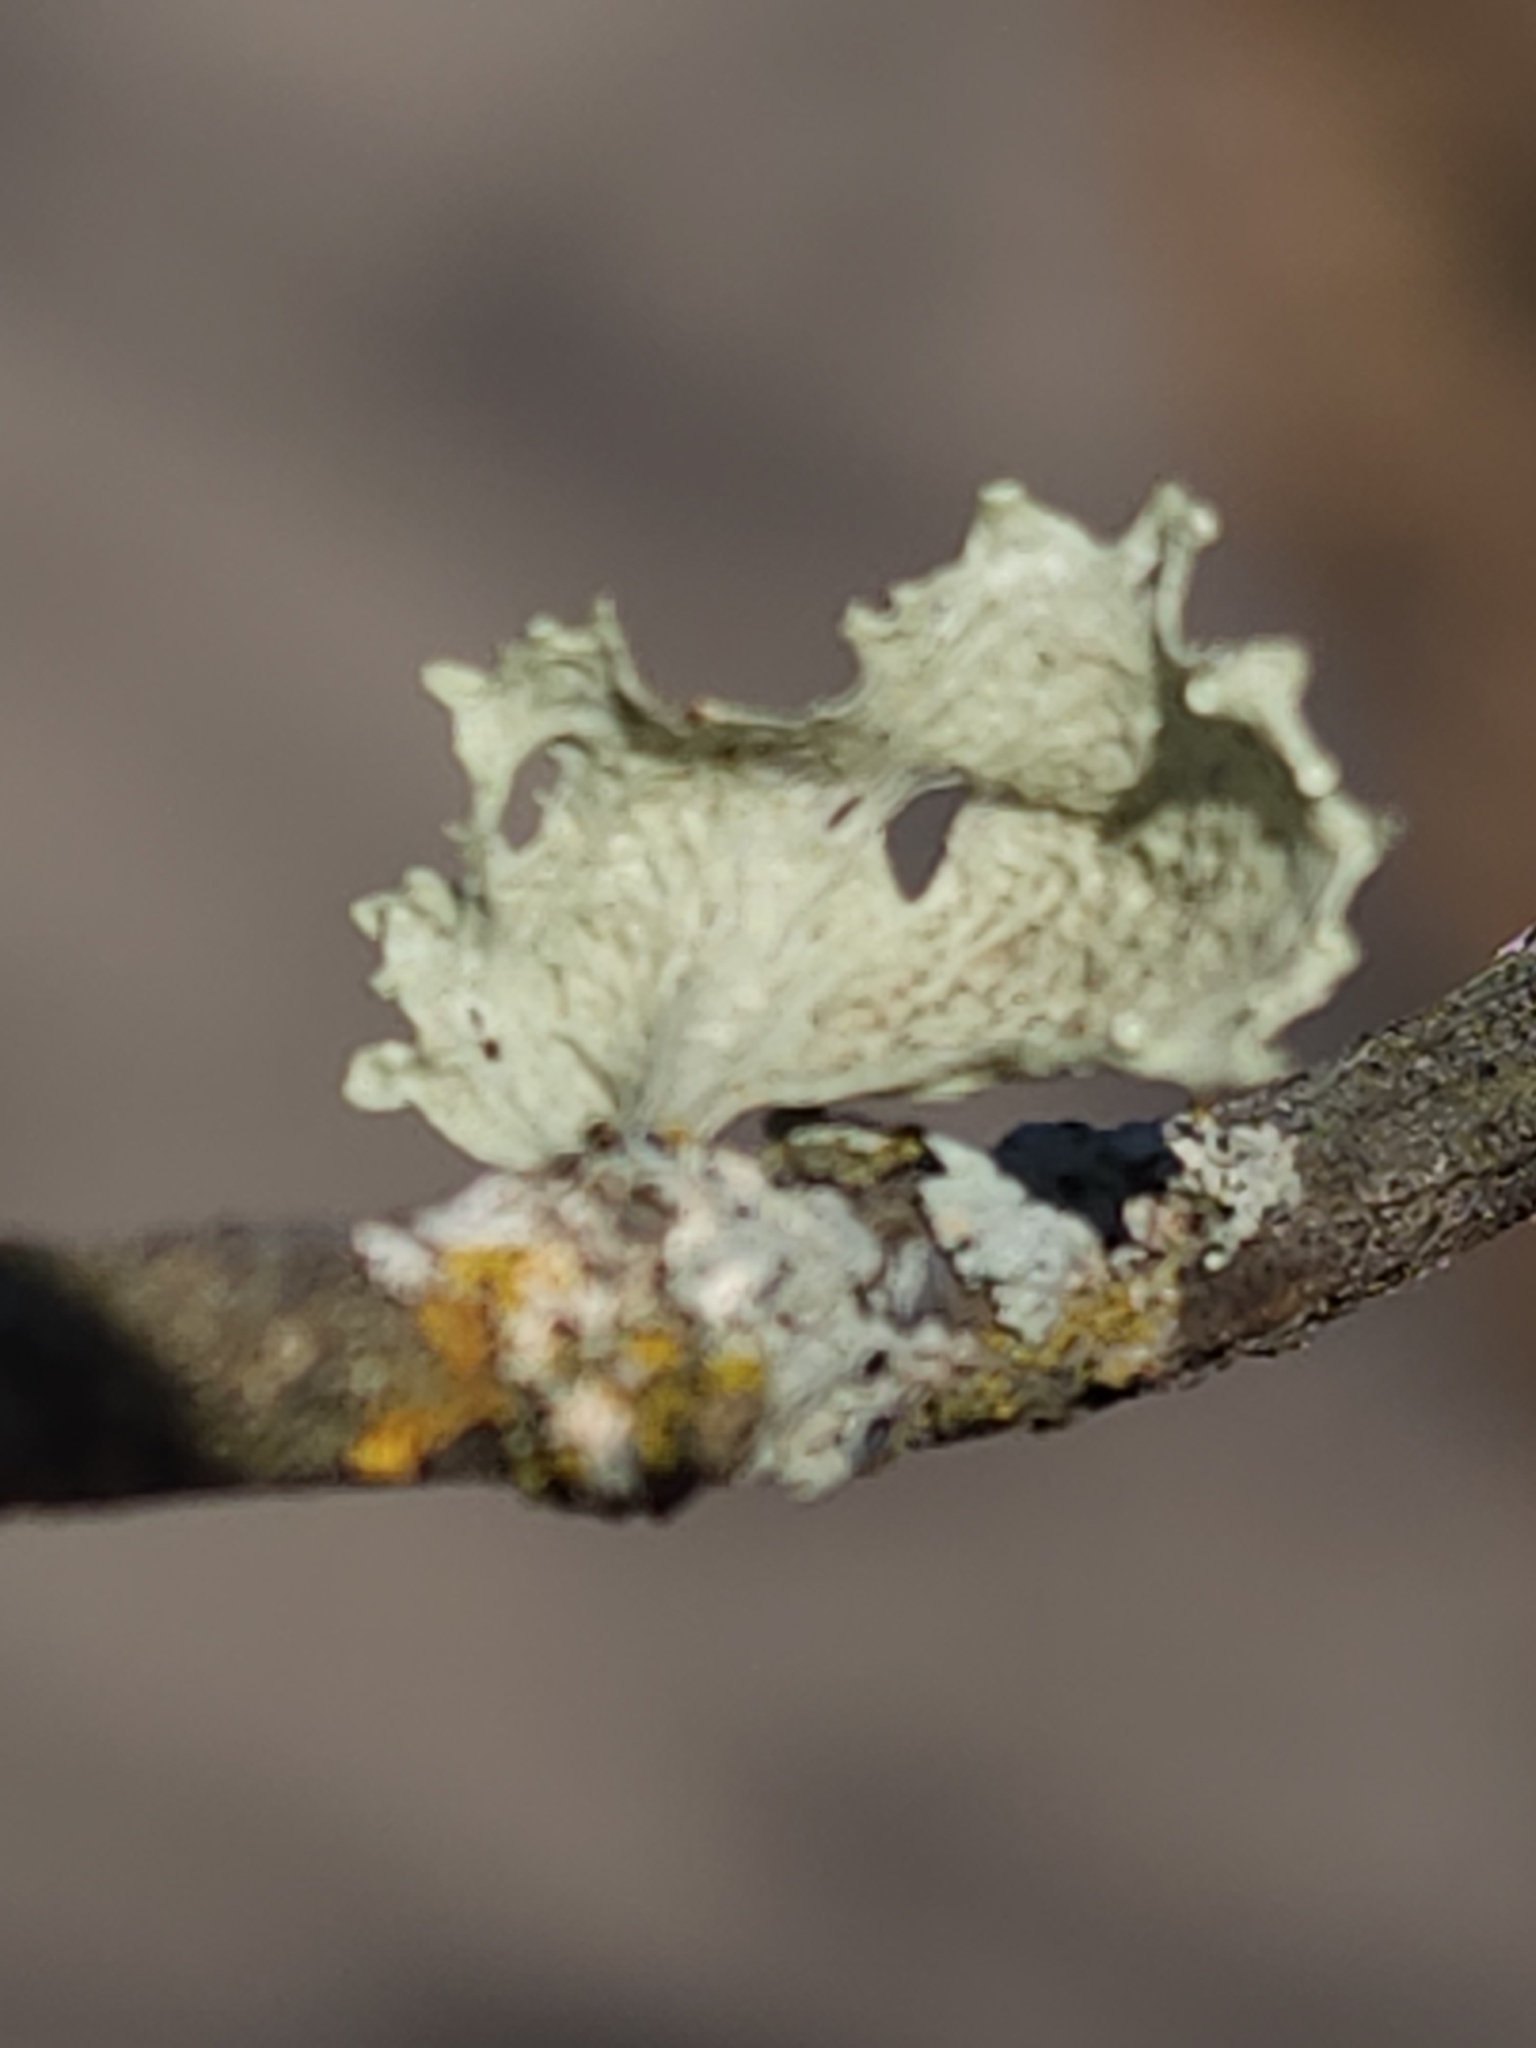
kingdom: Fungi
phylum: Ascomycota
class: Lecanoromycetes
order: Lecanorales
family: Ramalinaceae
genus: Ramalina
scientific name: Ramalina sinensis
